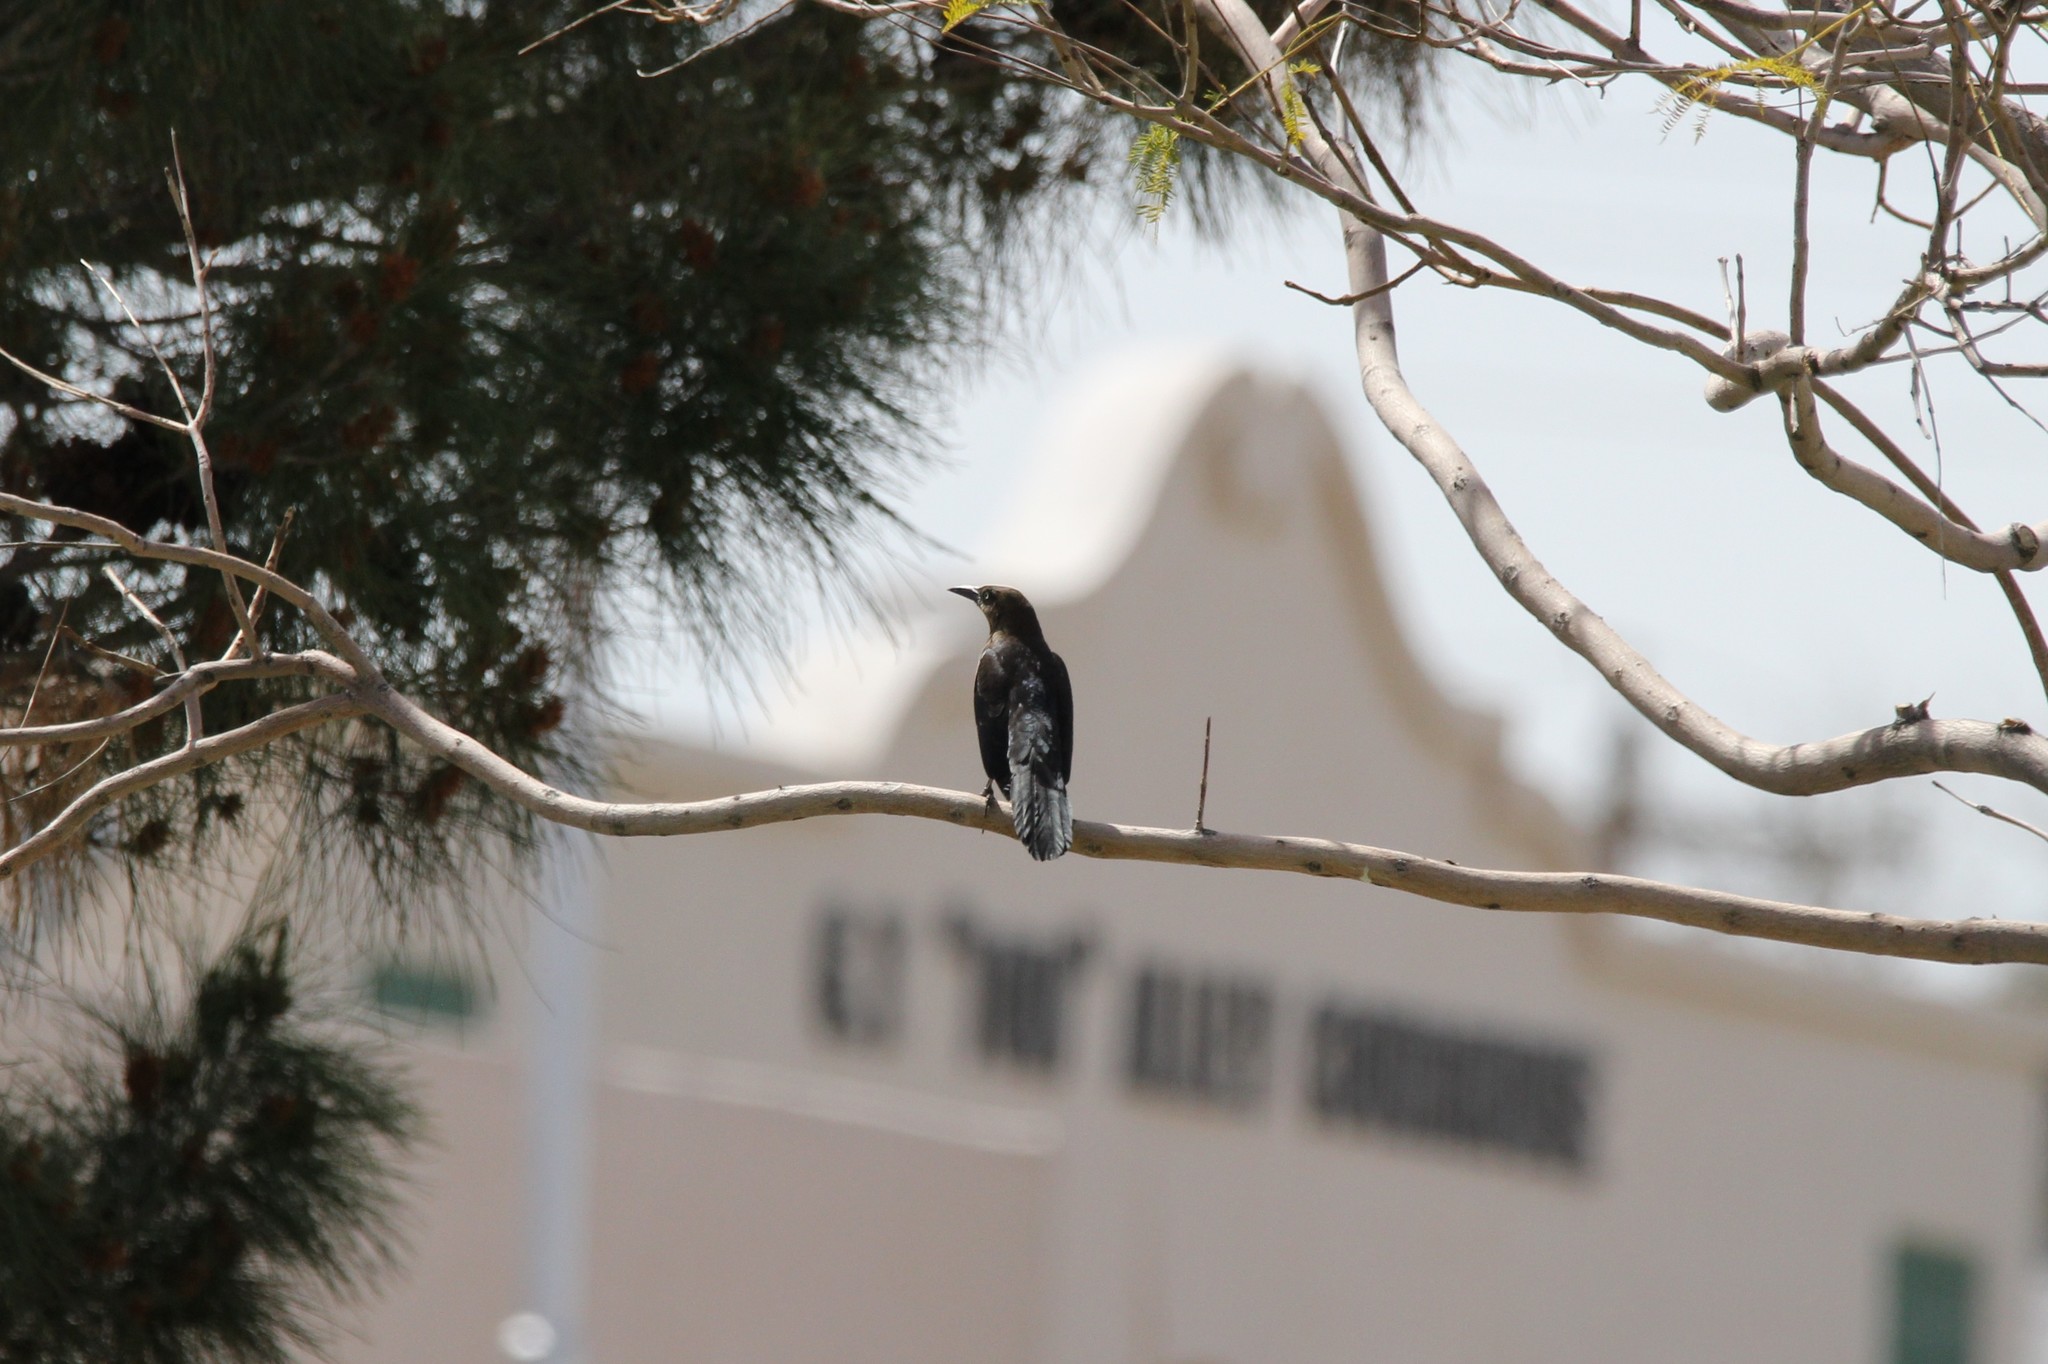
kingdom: Animalia
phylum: Chordata
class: Aves
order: Passeriformes
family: Icteridae
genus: Quiscalus
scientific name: Quiscalus mexicanus
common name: Great-tailed grackle
